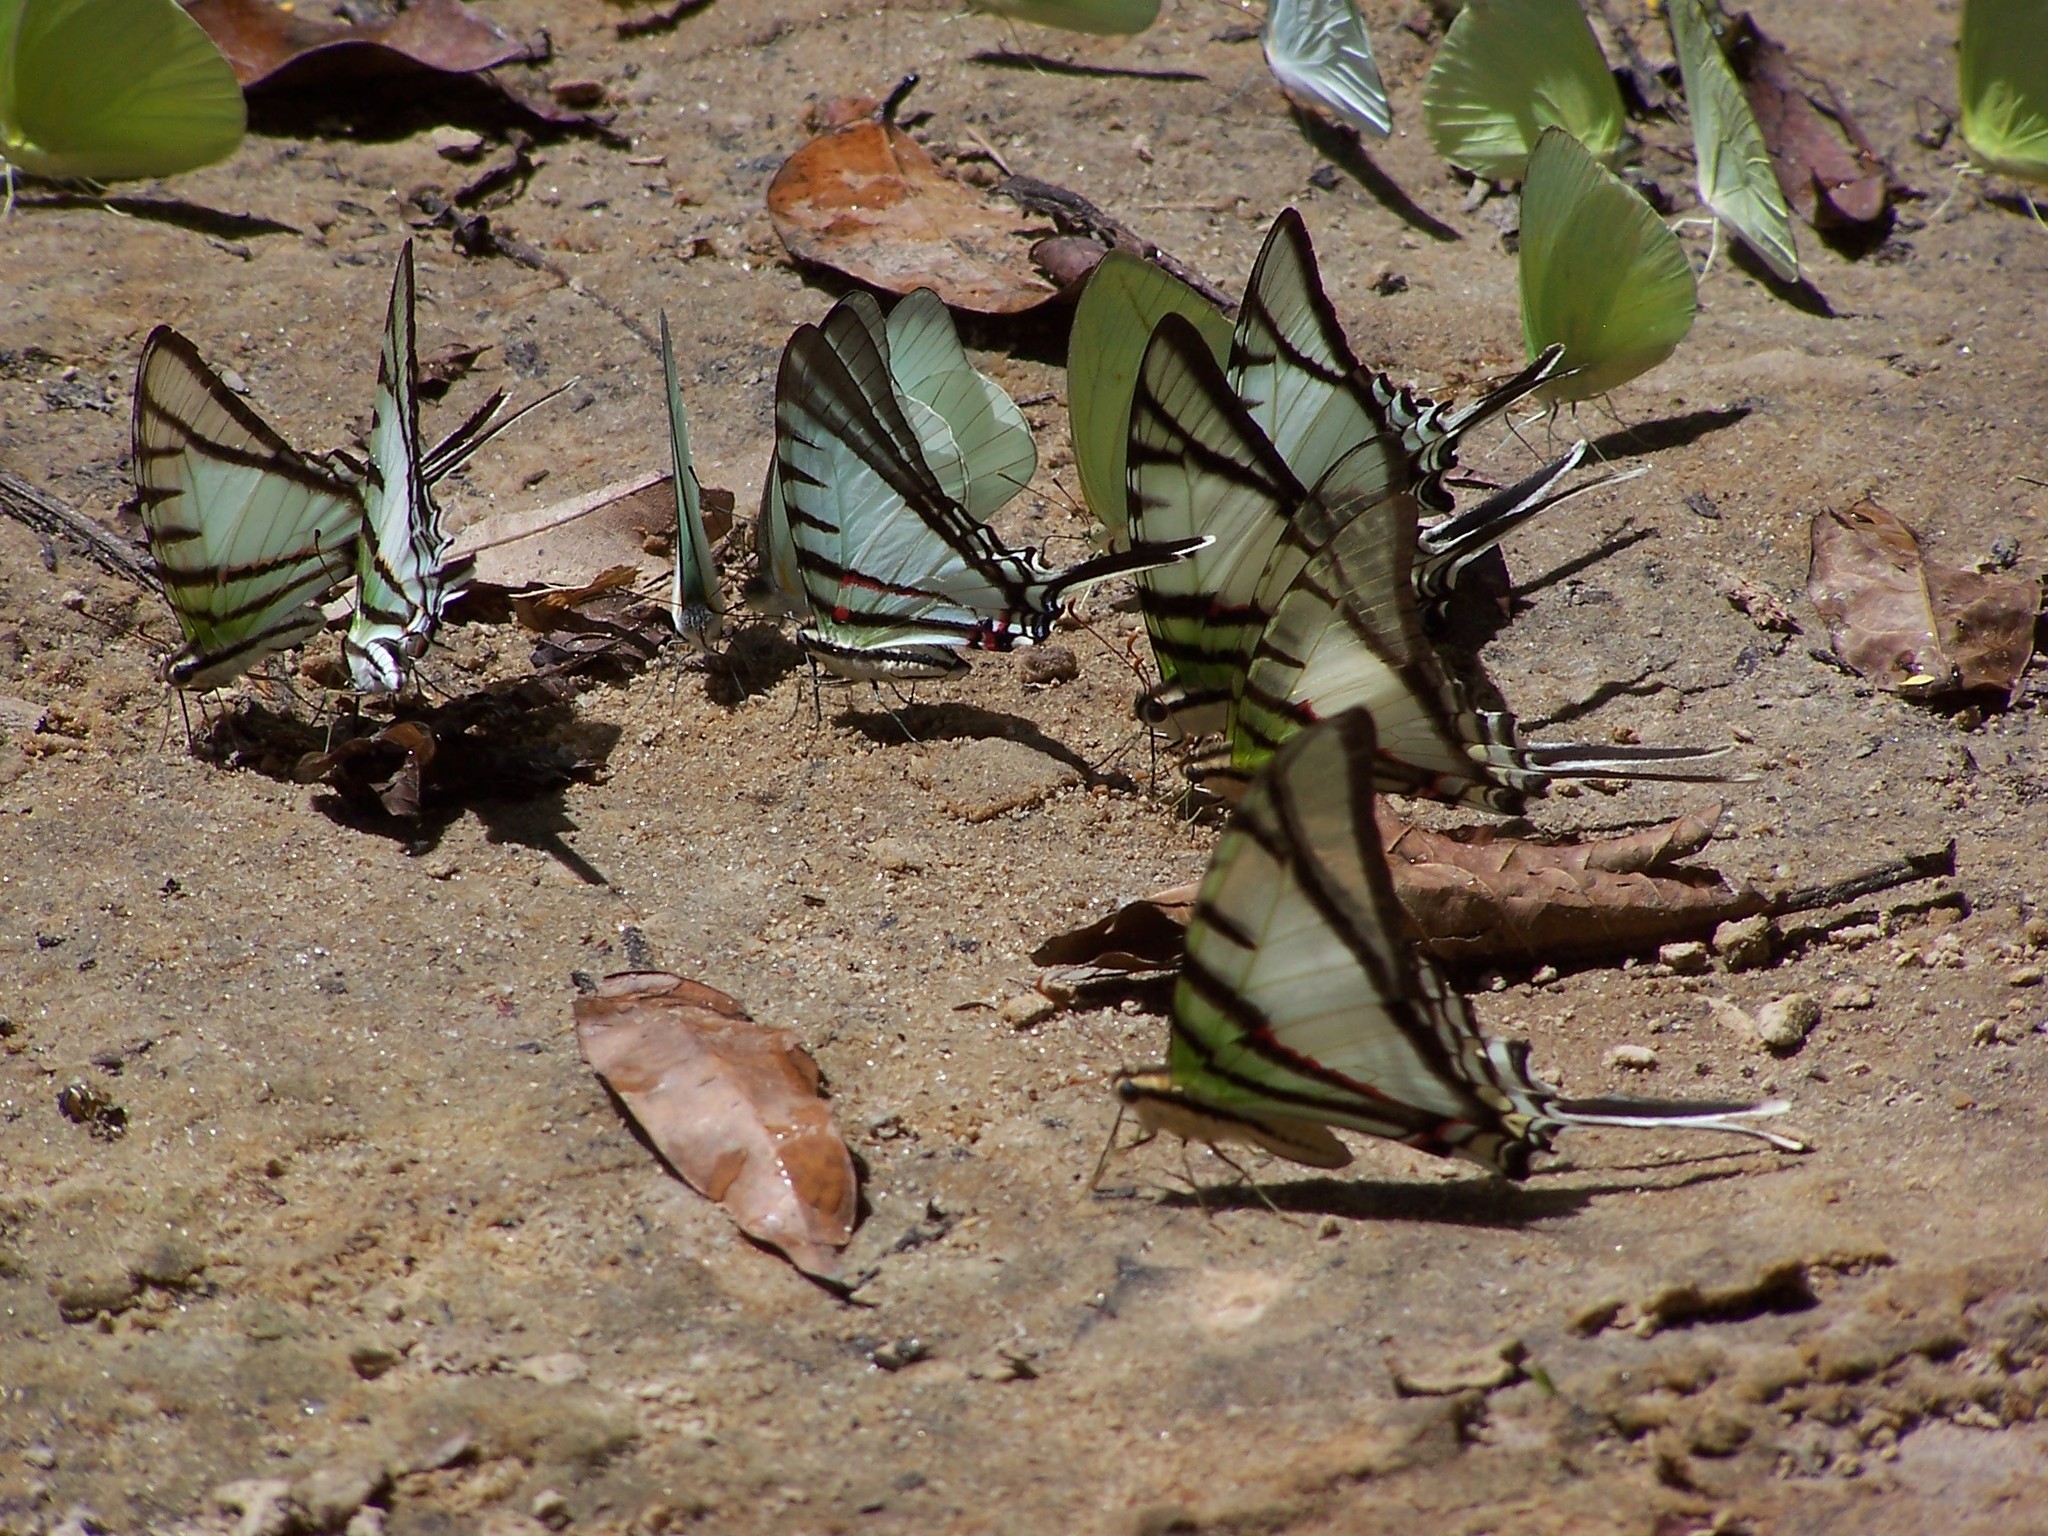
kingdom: Animalia
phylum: Arthropoda
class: Insecta
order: Lepidoptera
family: Papilionidae
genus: Protesilaus
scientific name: Protesilaus
